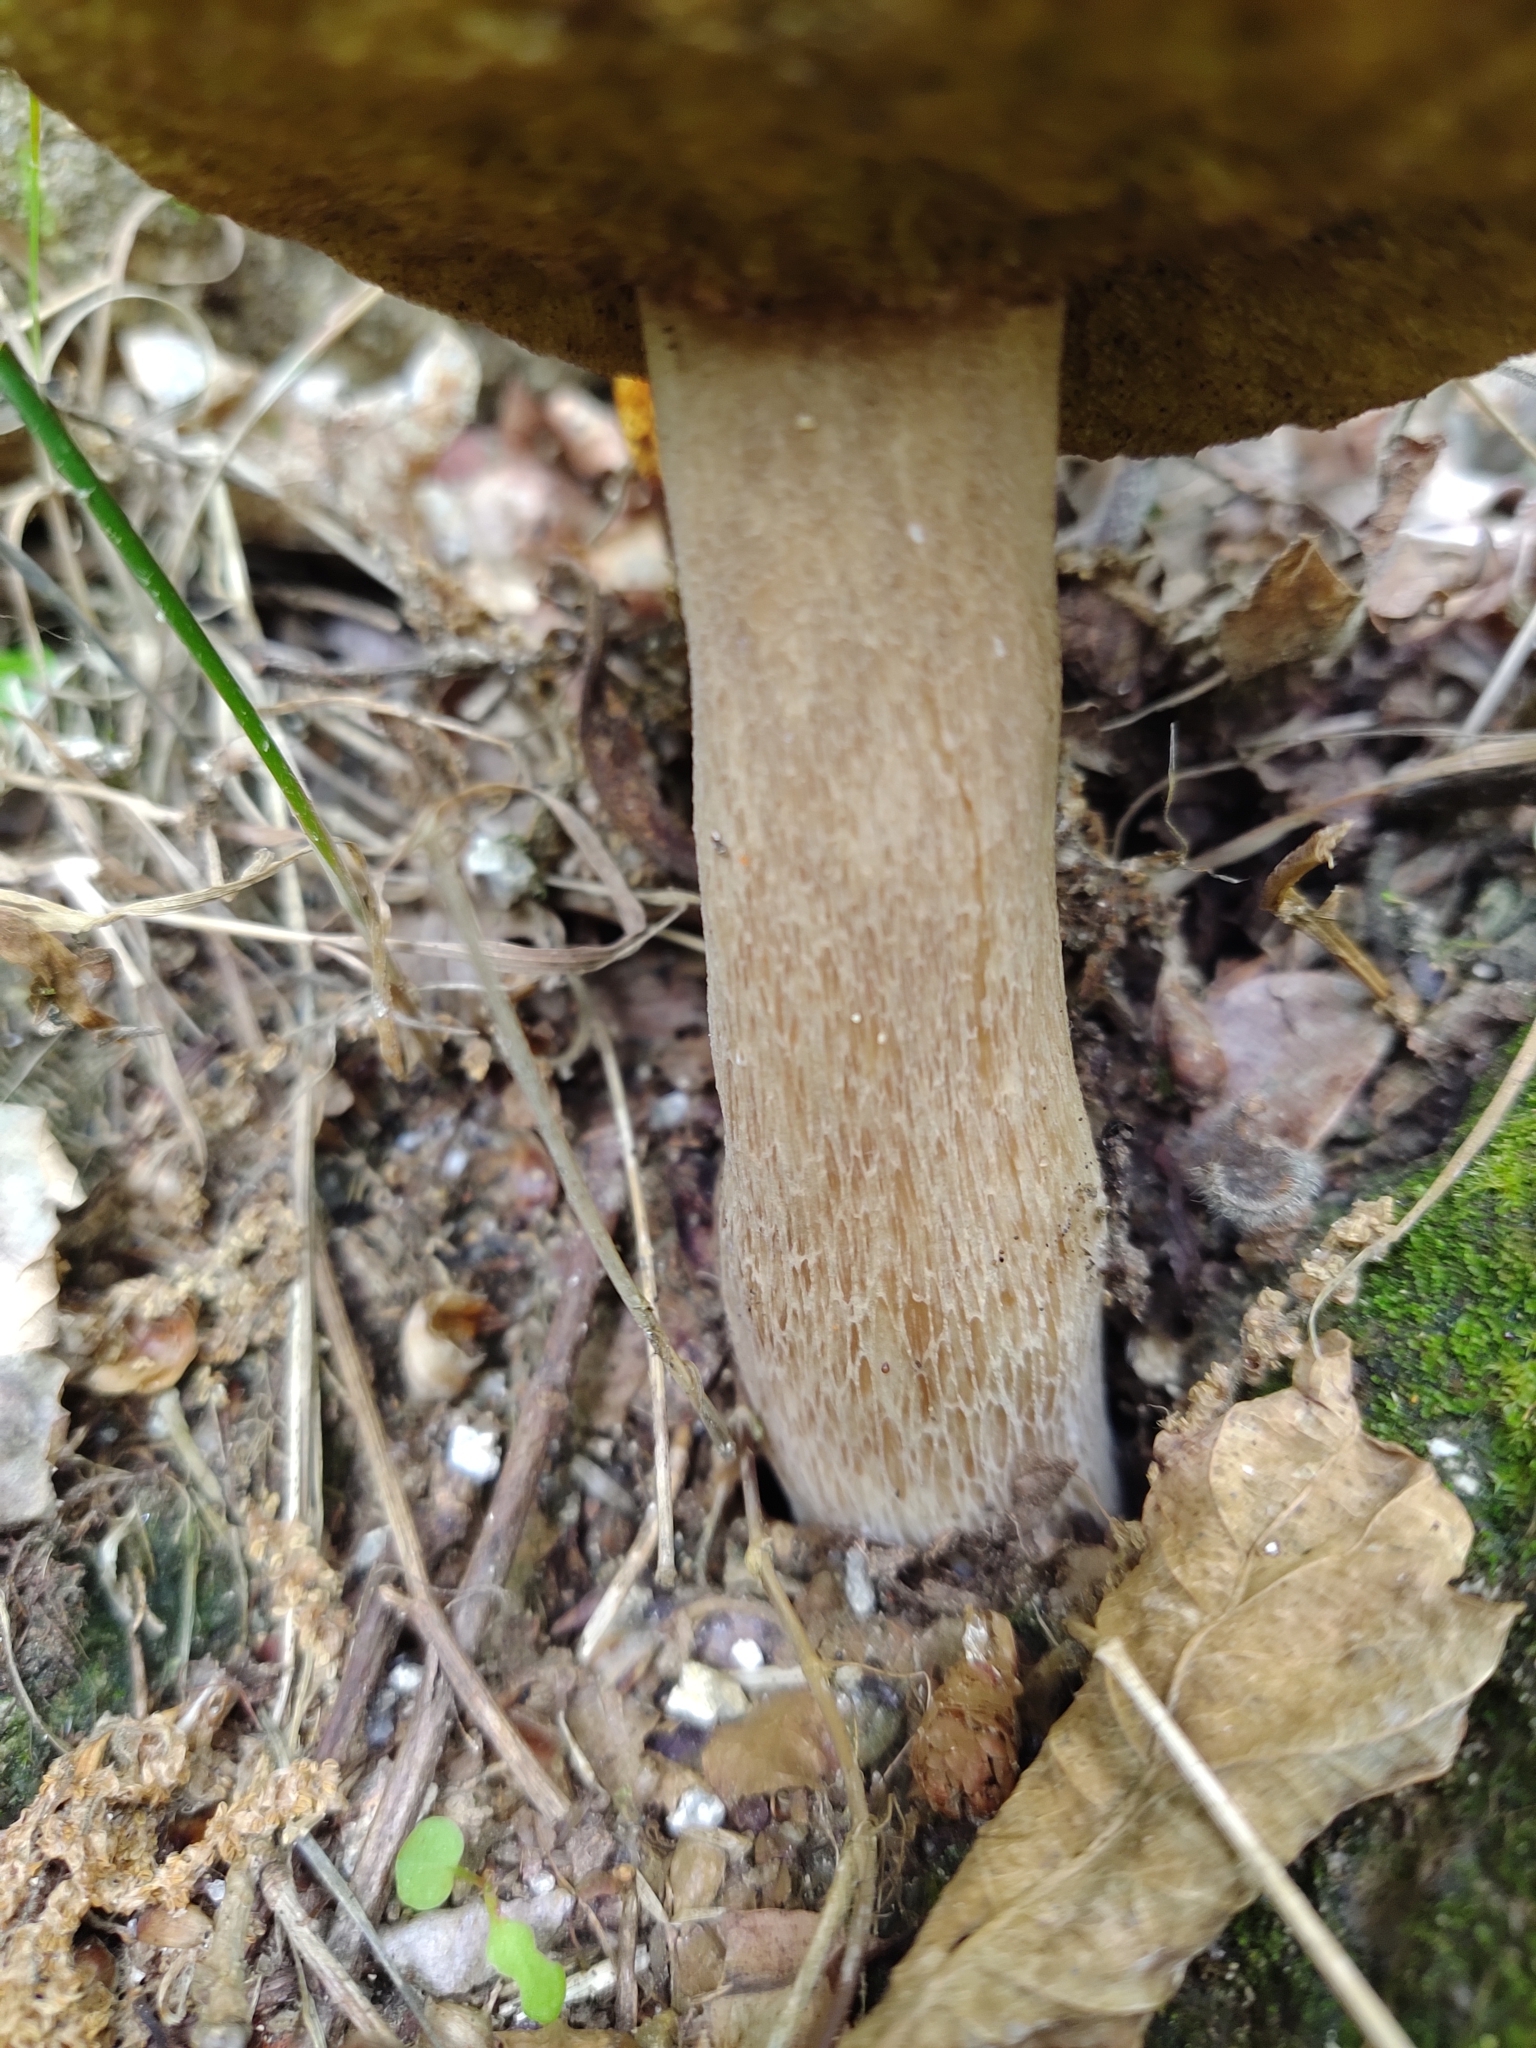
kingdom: Fungi
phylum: Basidiomycota
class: Agaricomycetes
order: Boletales
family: Boletaceae
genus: Boletus
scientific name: Boletus reticulatus
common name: Summer bolete
